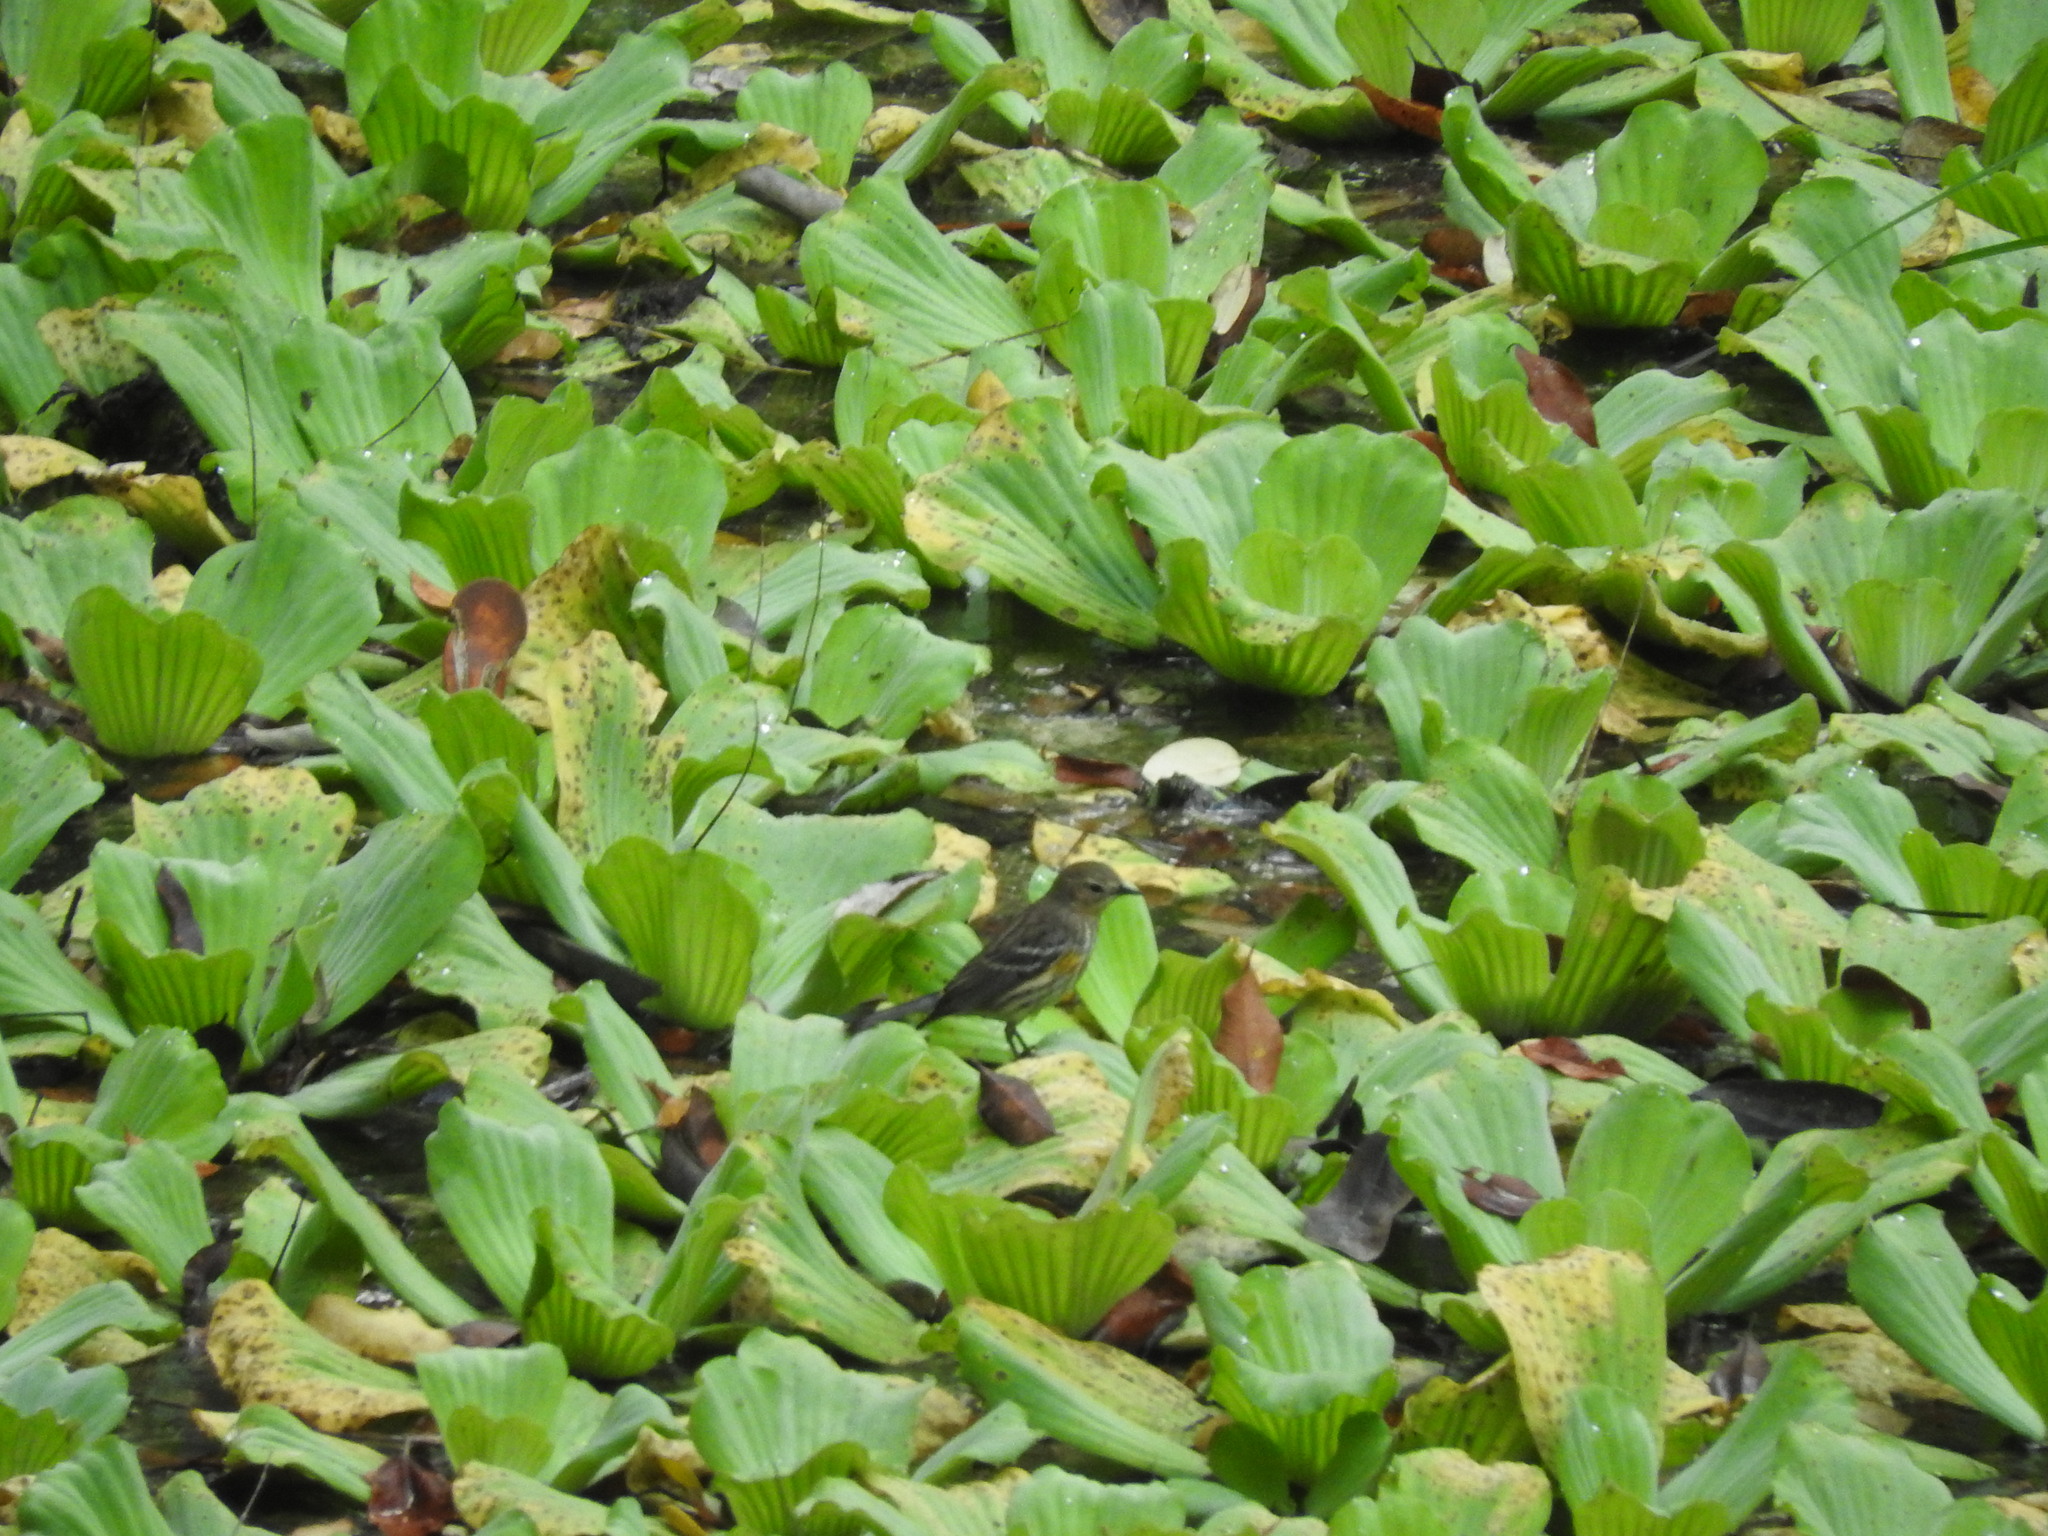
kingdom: Animalia
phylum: Chordata
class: Aves
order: Passeriformes
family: Parulidae
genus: Setophaga
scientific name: Setophaga coronata
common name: Myrtle warbler
